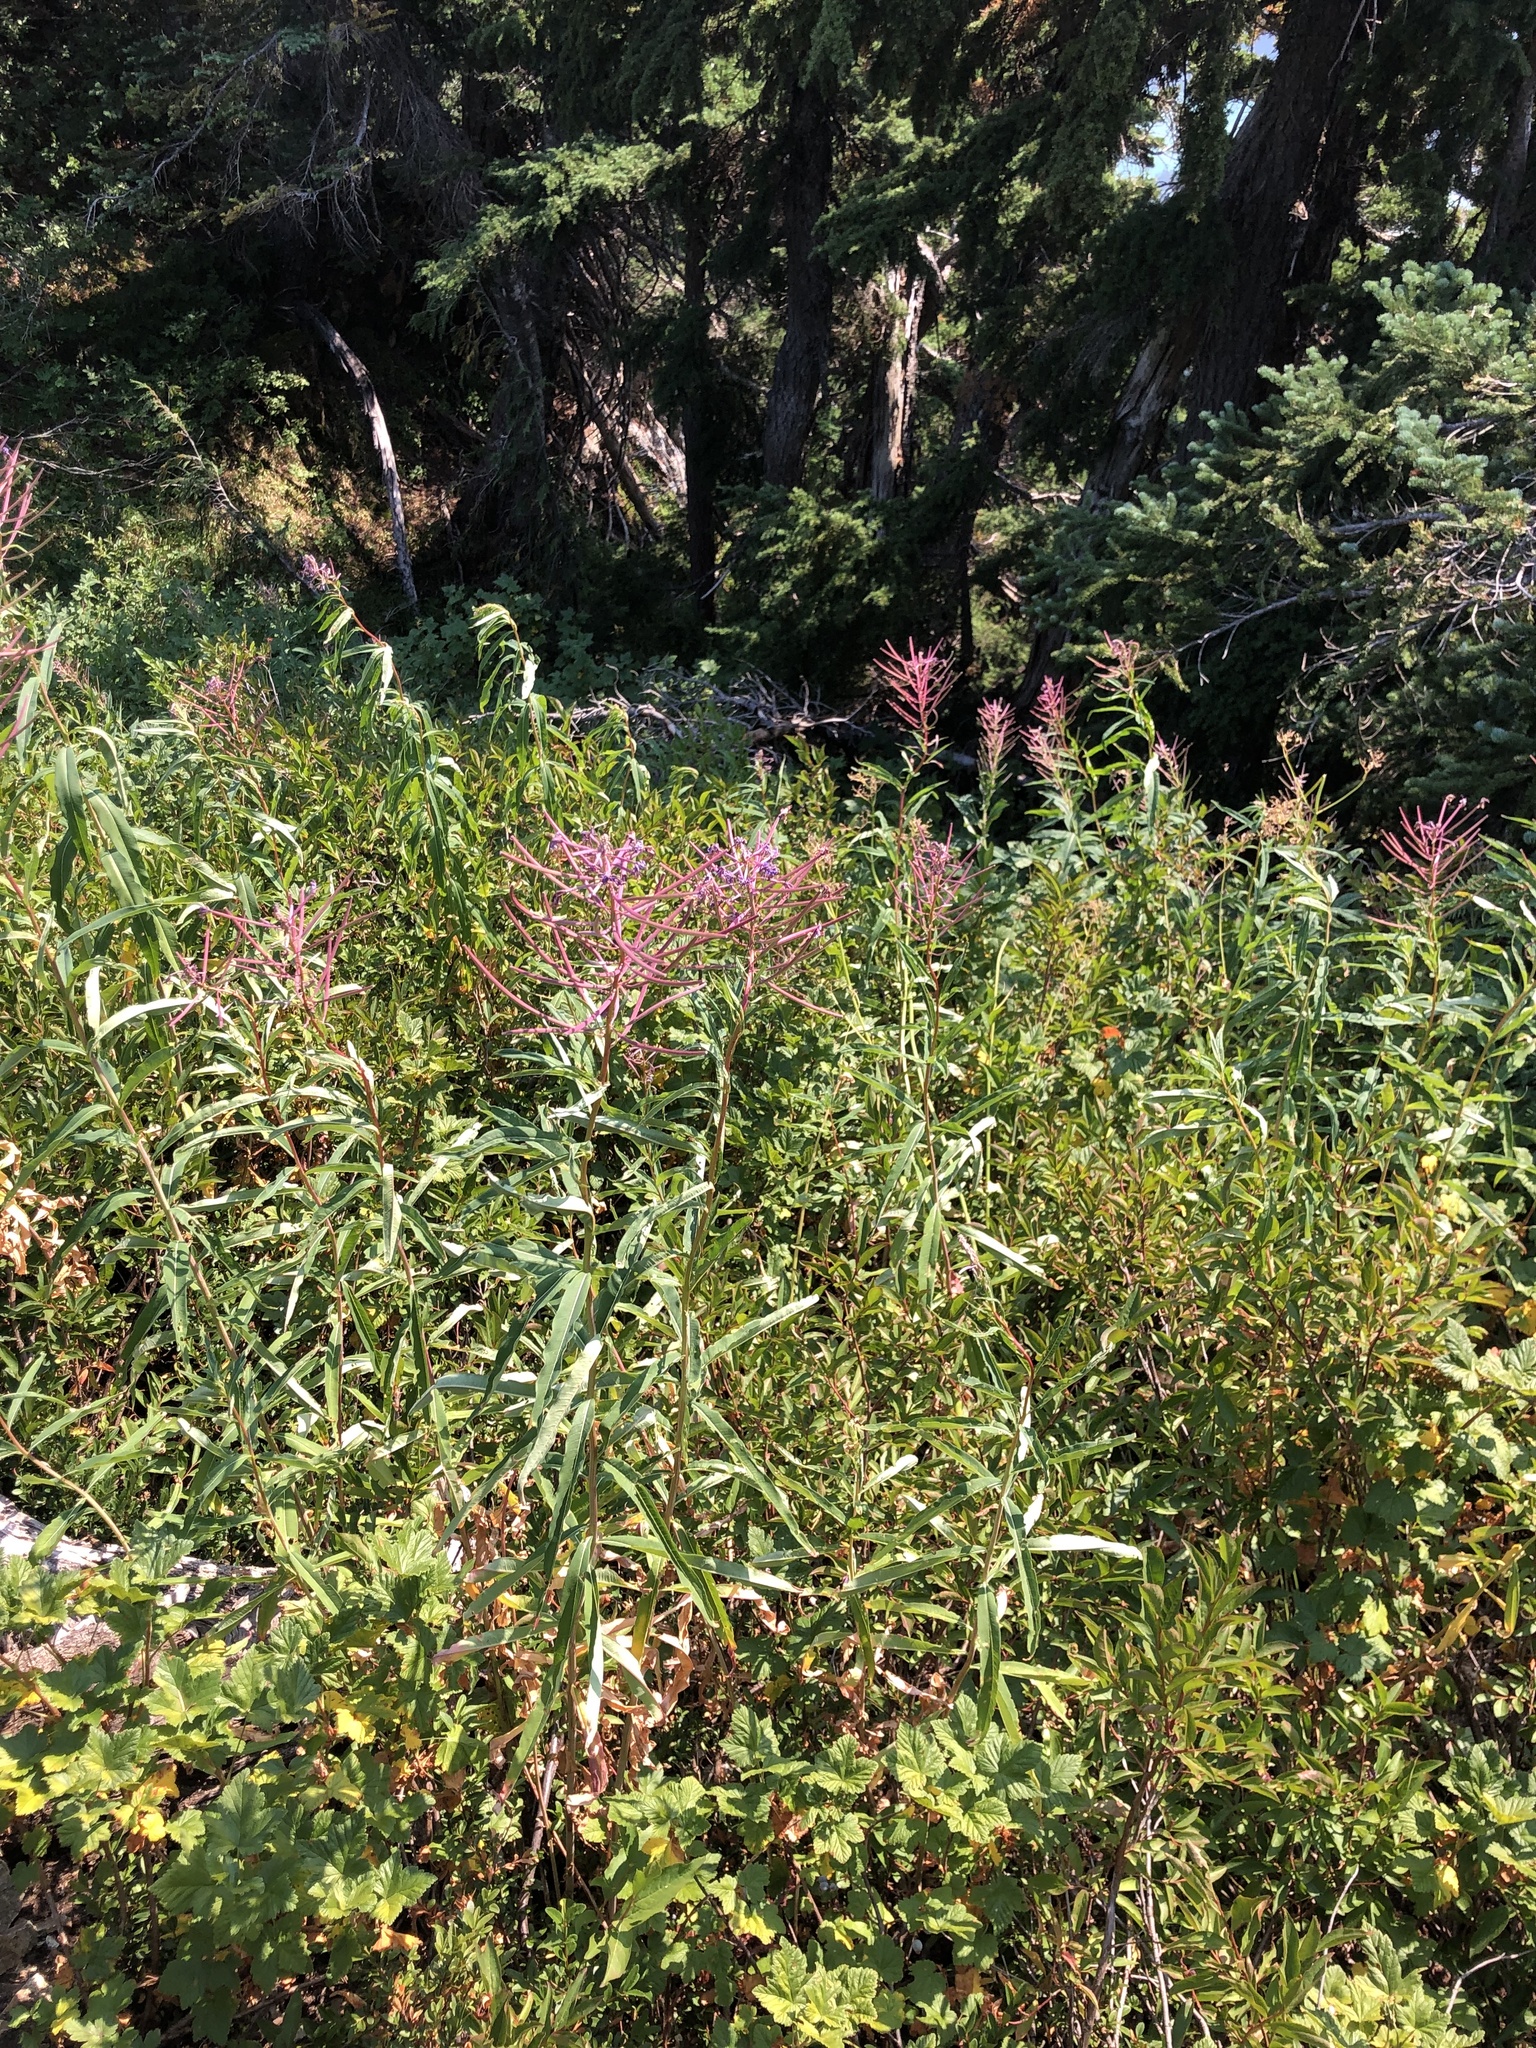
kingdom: Plantae
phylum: Tracheophyta
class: Magnoliopsida
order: Myrtales
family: Onagraceae
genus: Chamaenerion
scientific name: Chamaenerion angustifolium
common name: Fireweed
